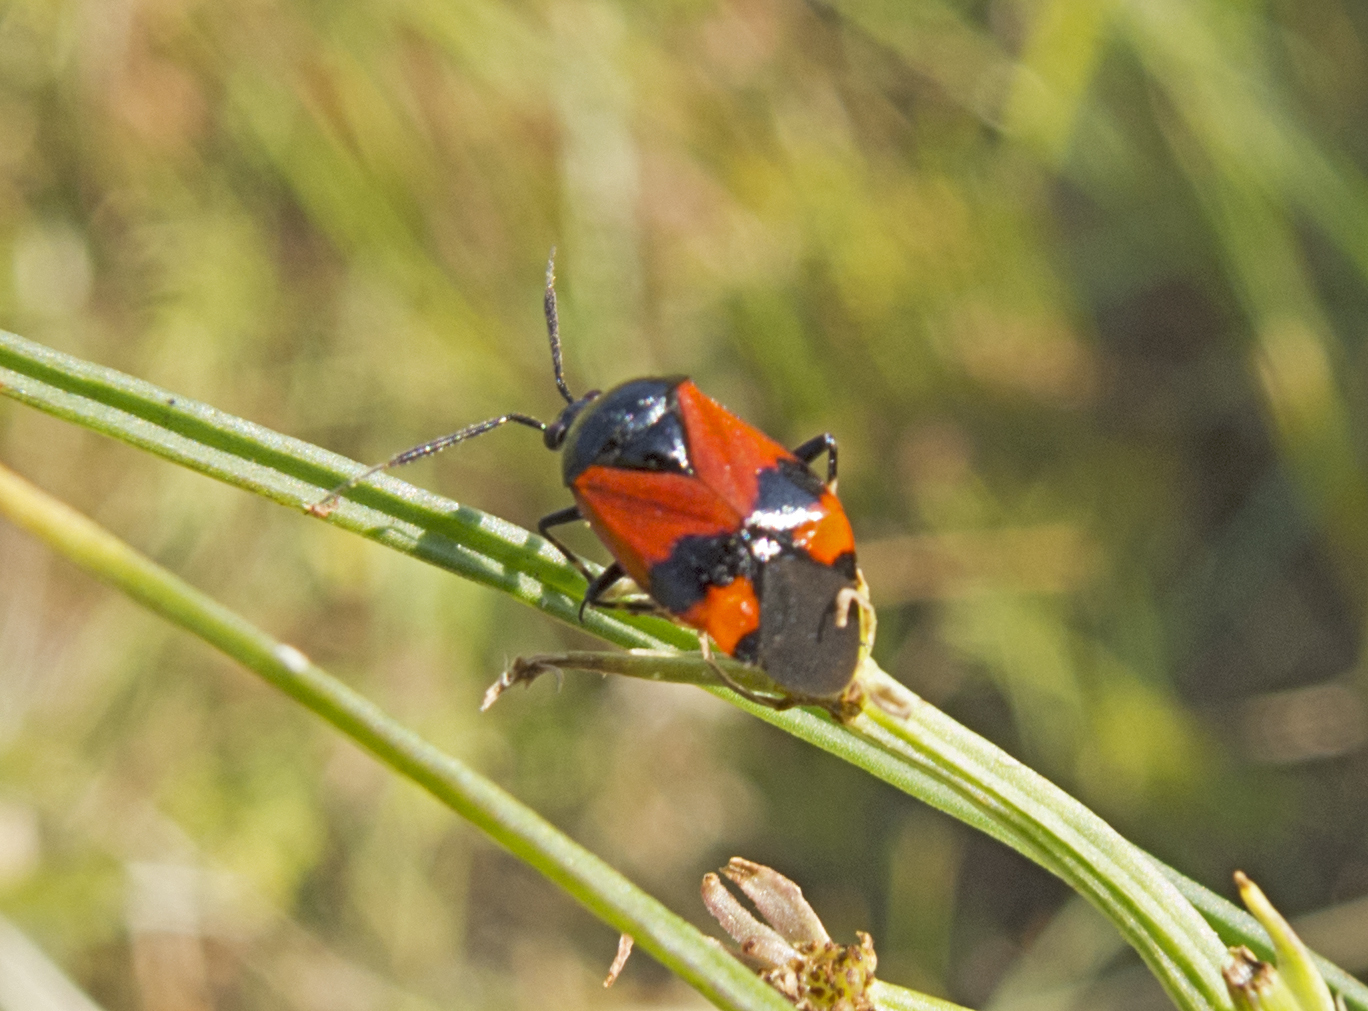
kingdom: Animalia
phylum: Arthropoda
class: Insecta
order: Hemiptera
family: Miridae
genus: Deraeocoris
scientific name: Deraeocoris rutilus
